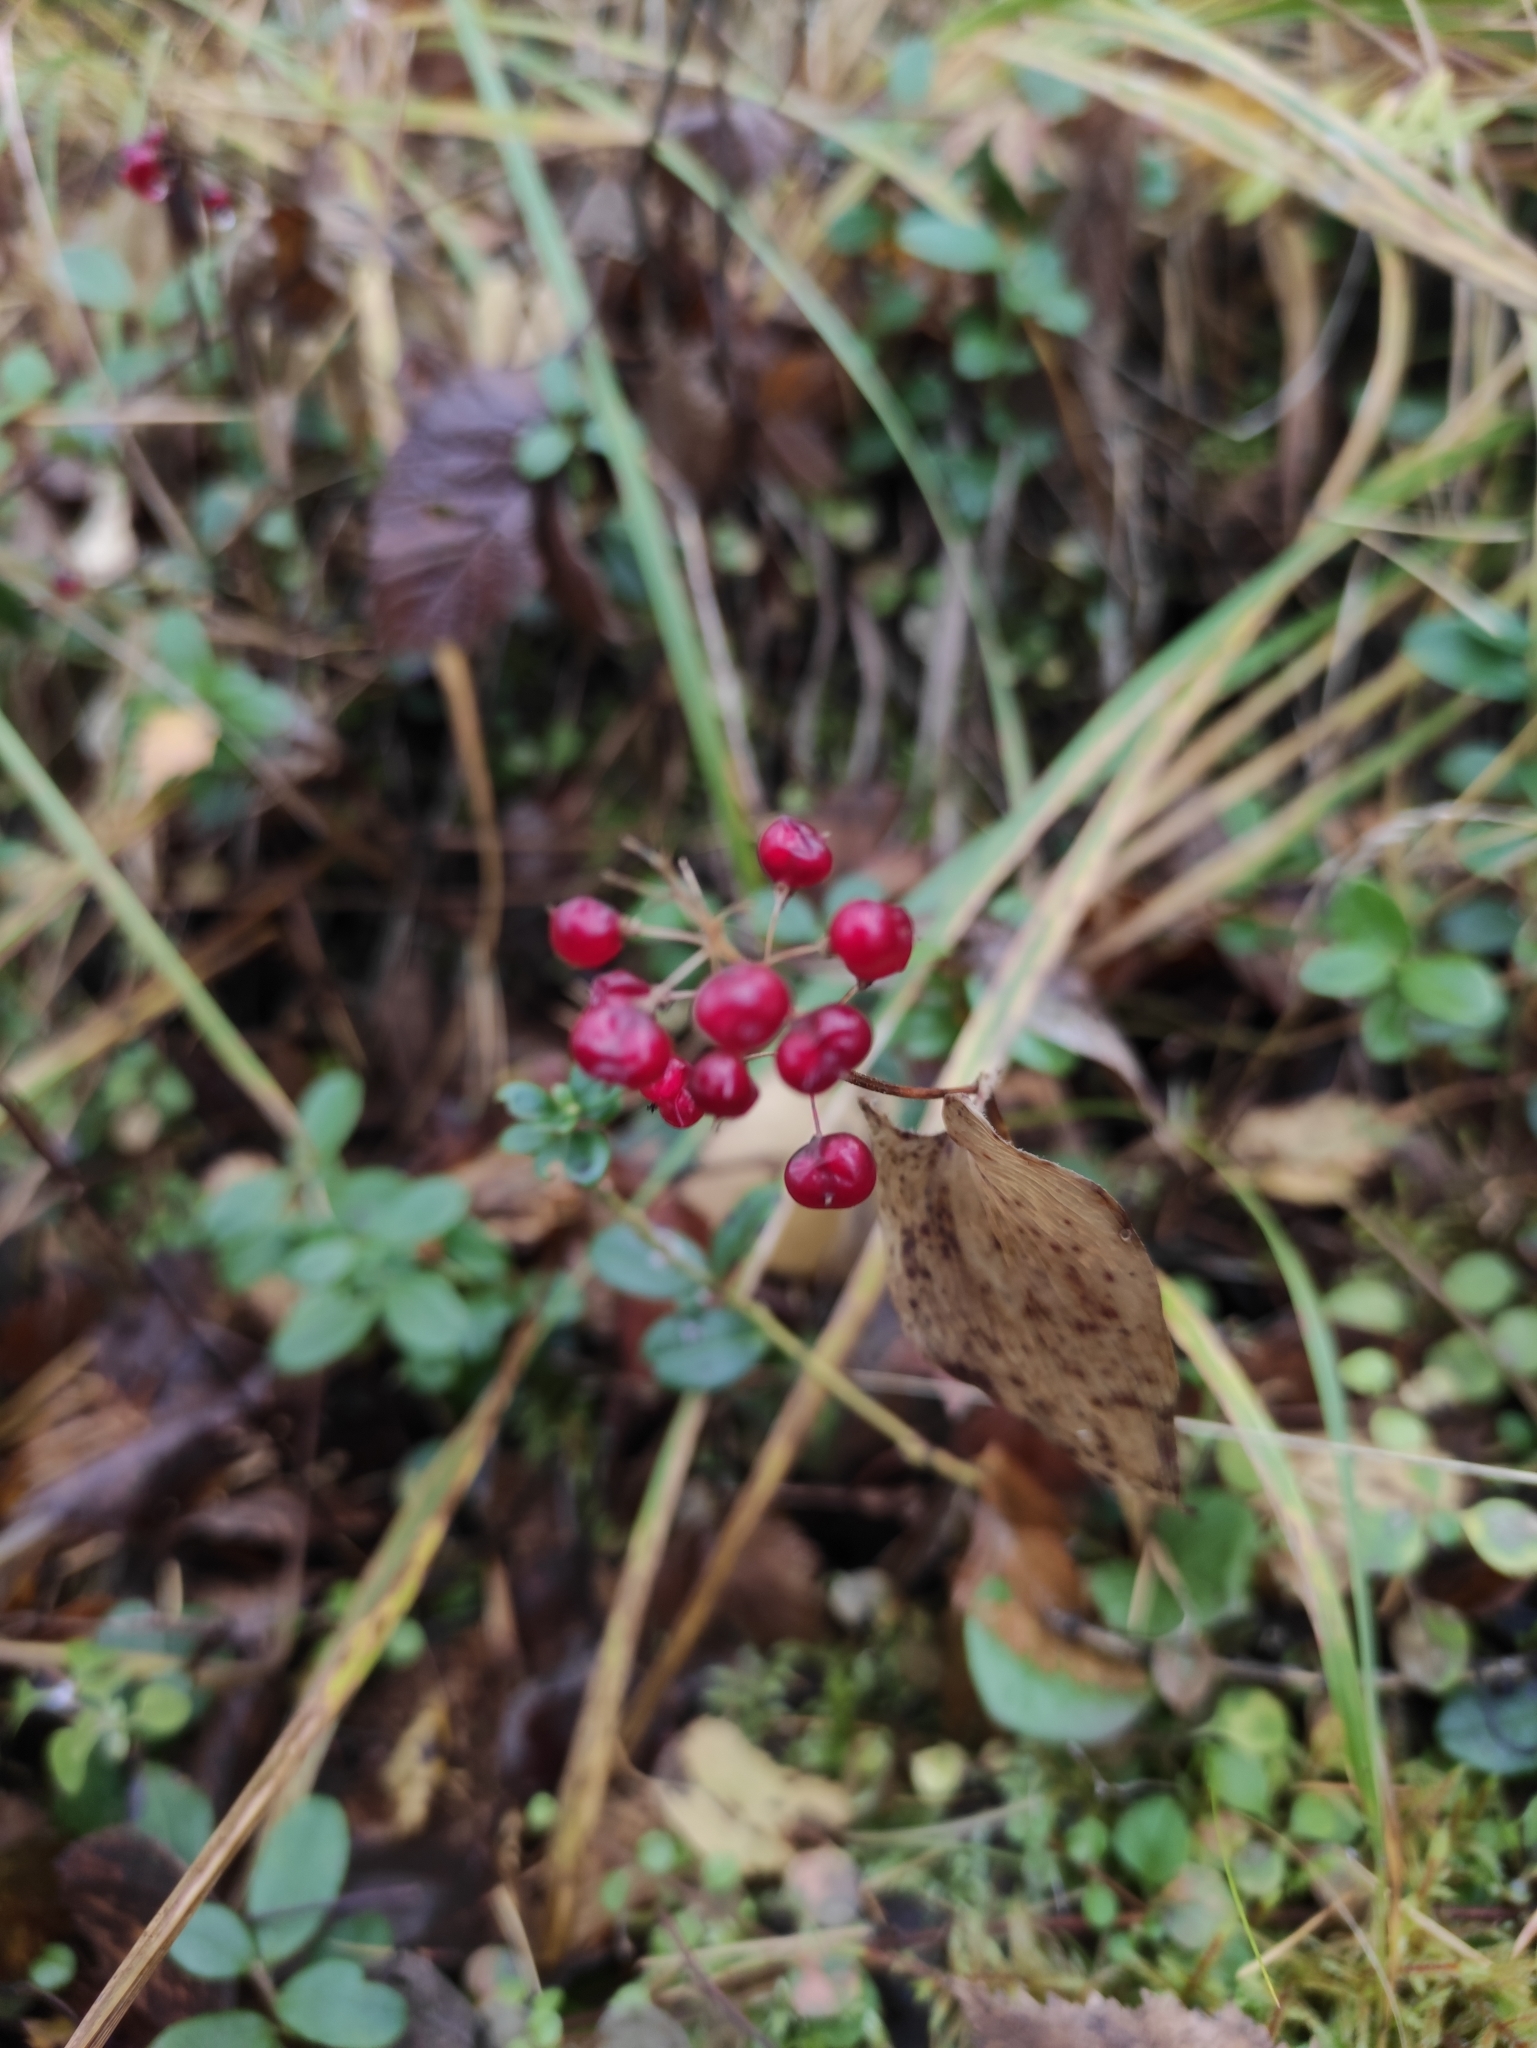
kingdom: Plantae
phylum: Tracheophyta
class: Liliopsida
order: Asparagales
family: Asparagaceae
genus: Maianthemum
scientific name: Maianthemum bifolium
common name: May lily
